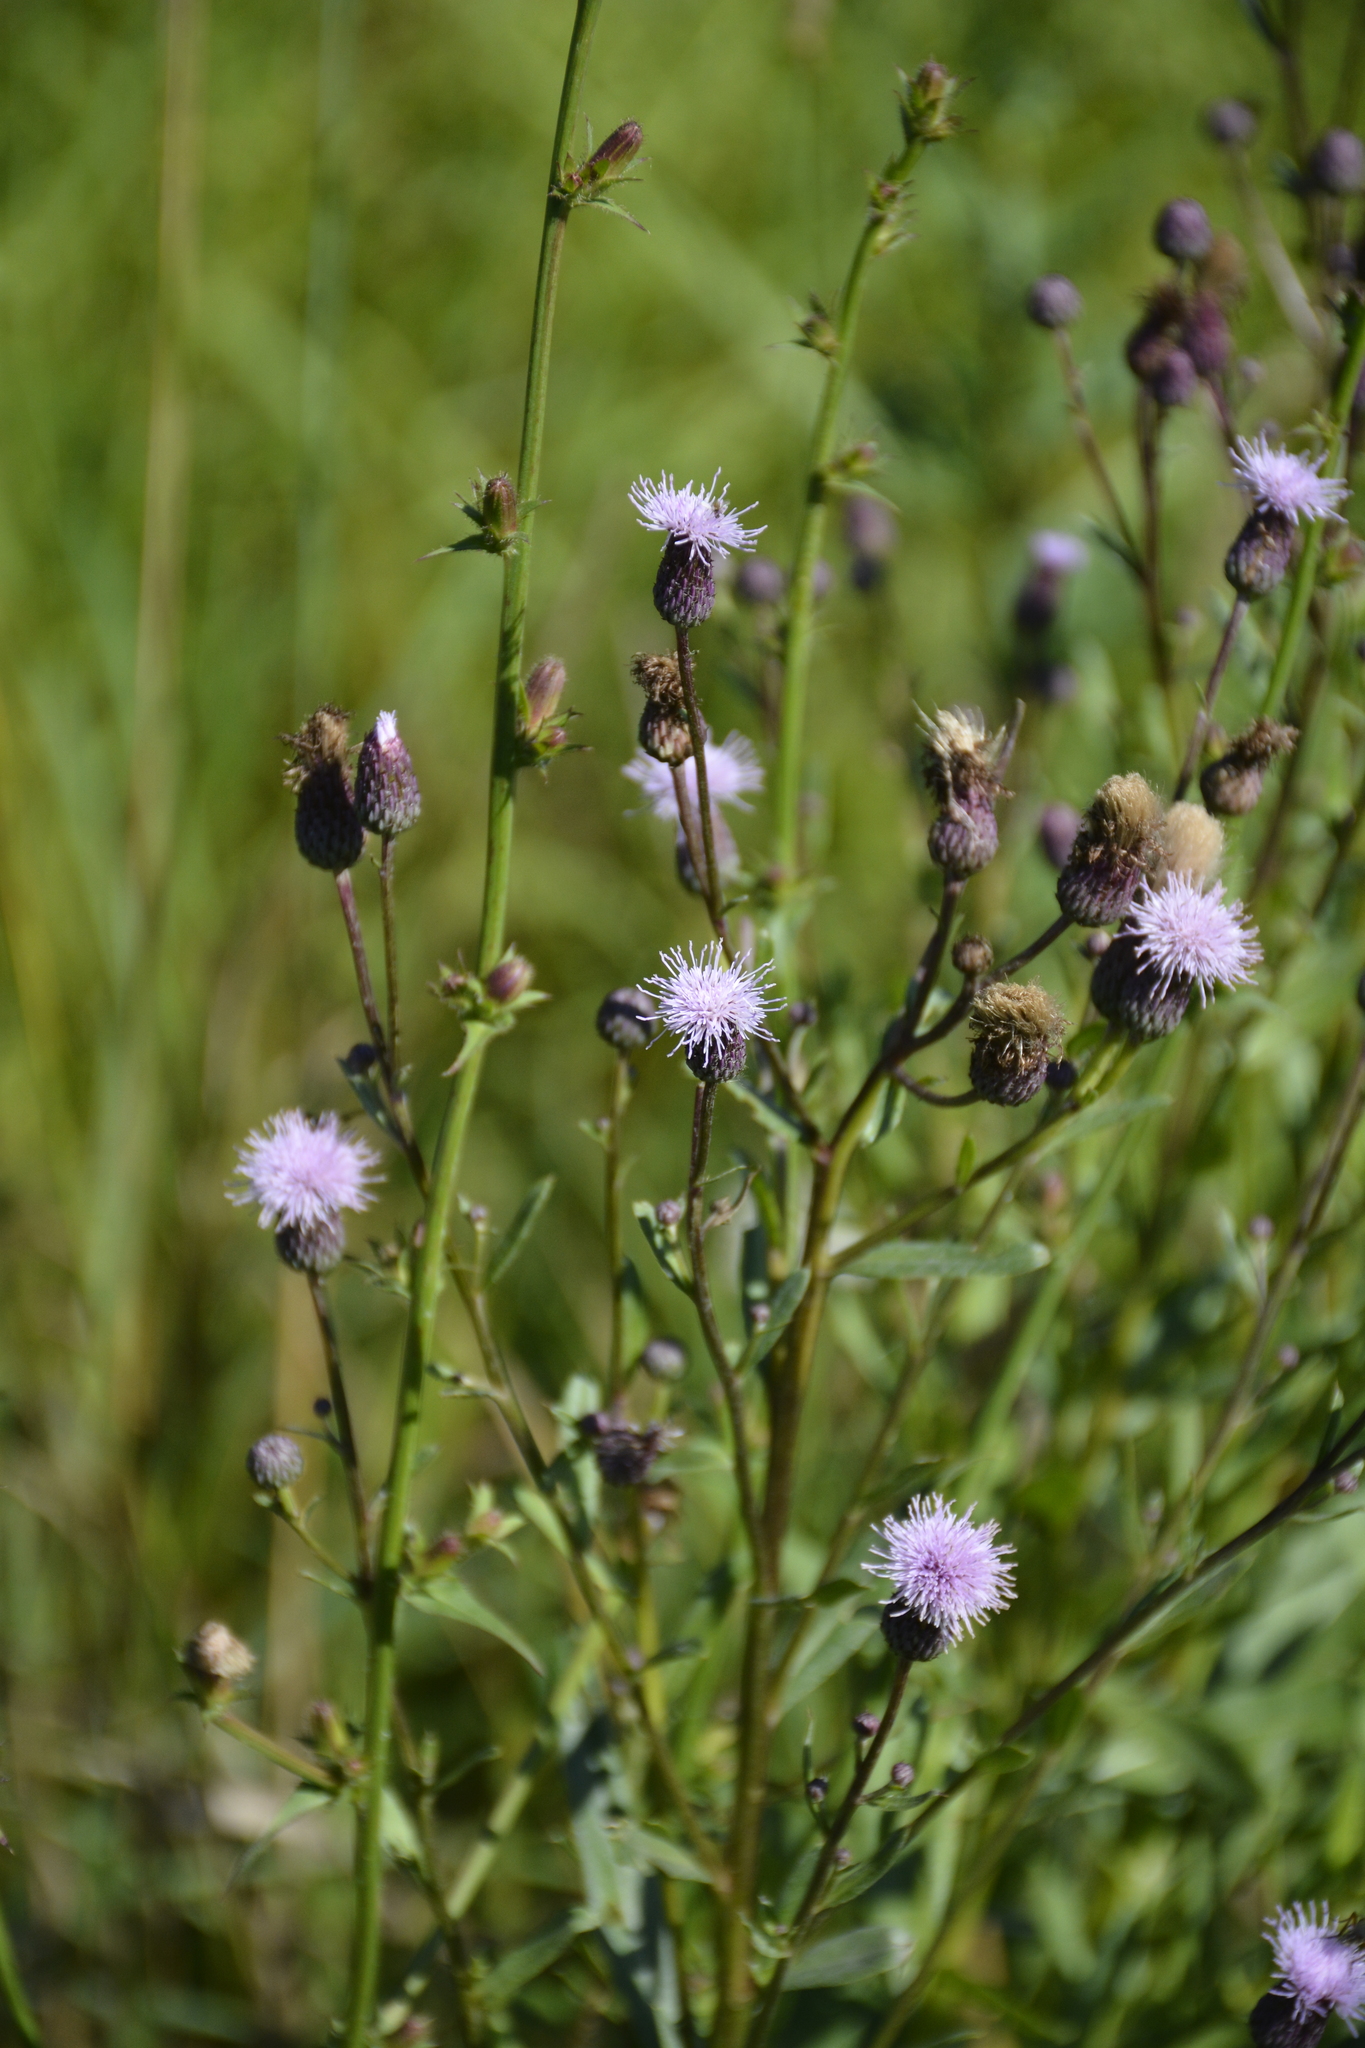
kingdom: Plantae
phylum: Tracheophyta
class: Magnoliopsida
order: Asterales
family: Asteraceae
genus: Cirsium
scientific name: Cirsium arvense
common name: Creeping thistle
